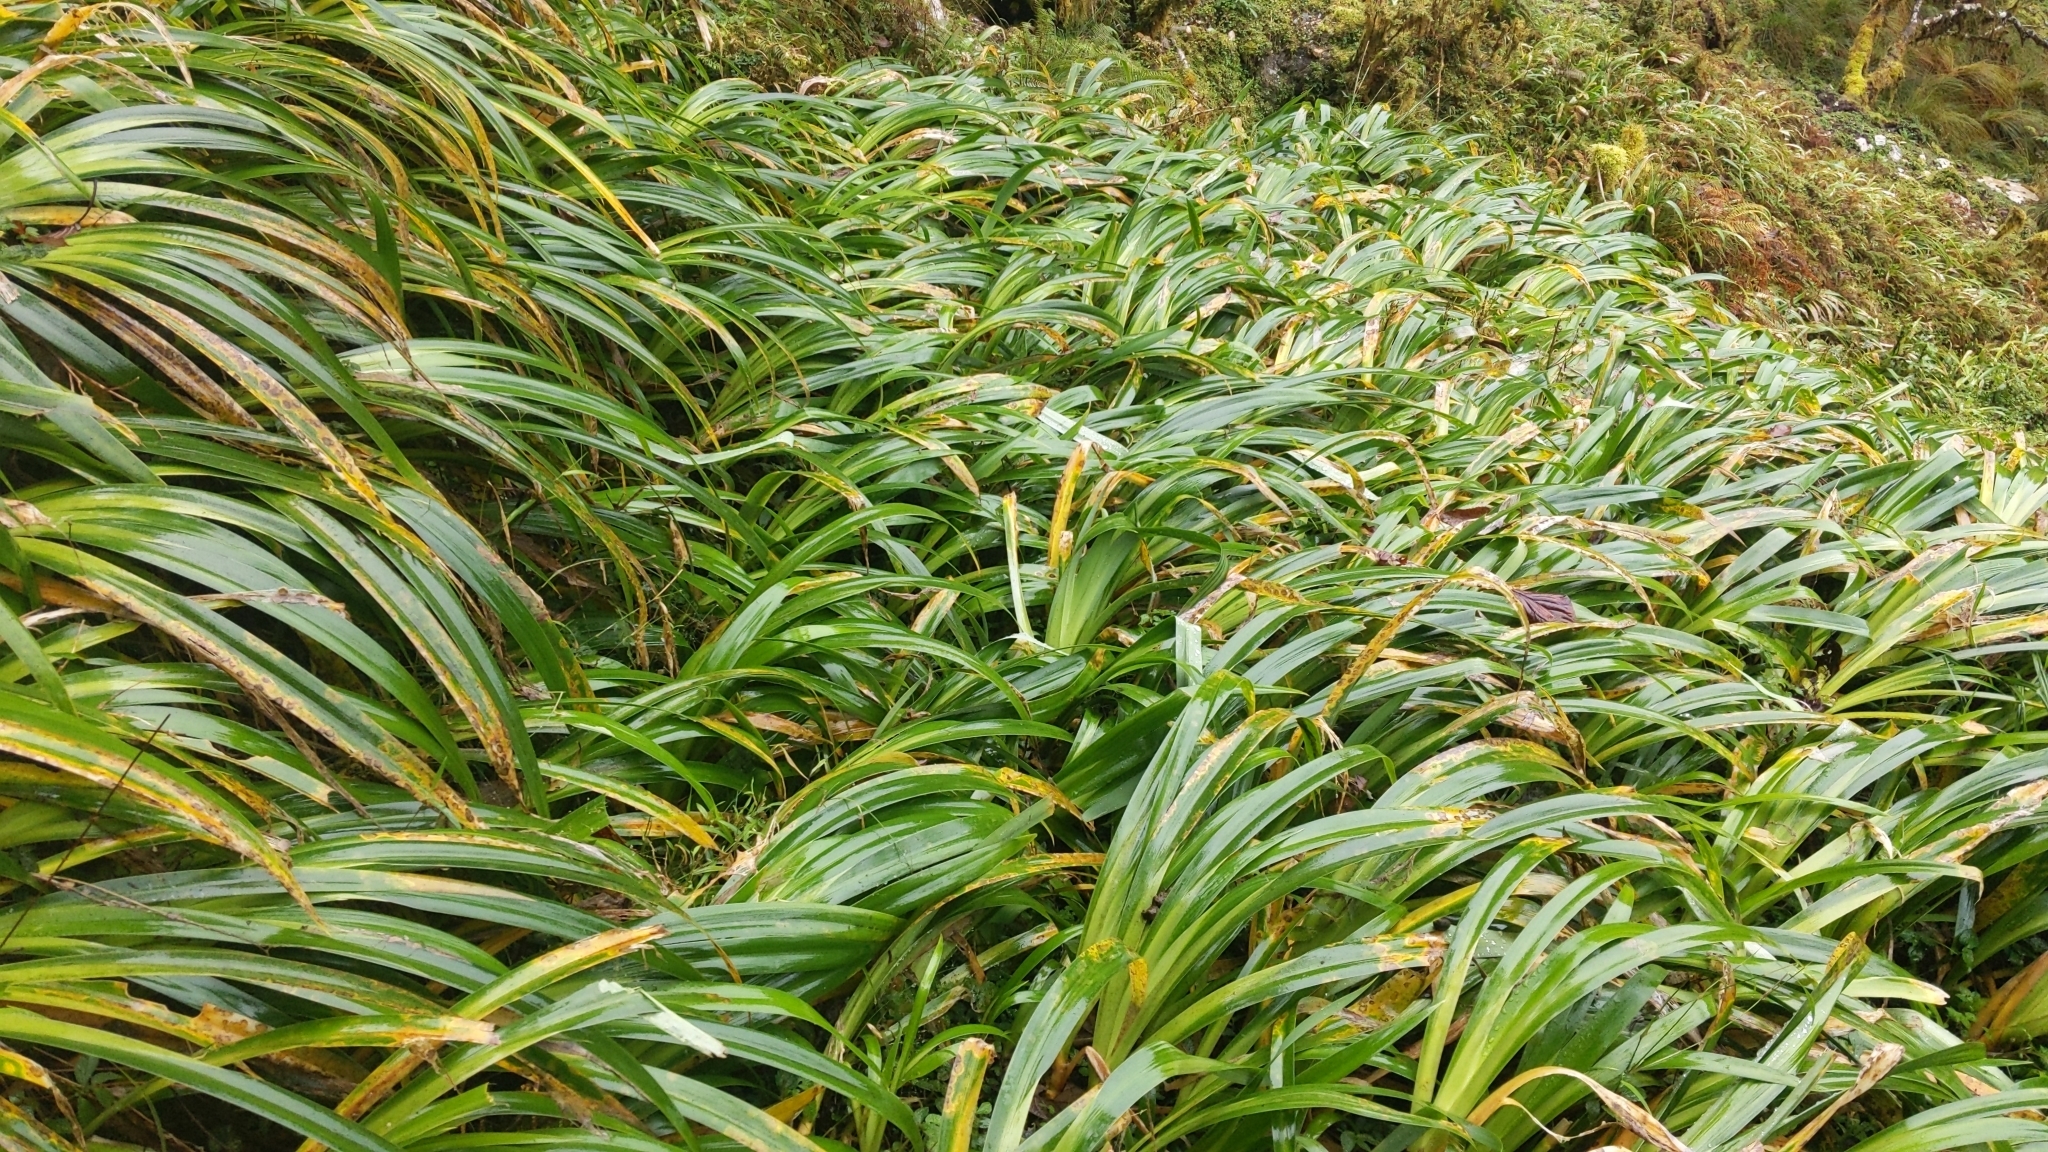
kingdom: Plantae
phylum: Tracheophyta
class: Liliopsida
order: Asparagales
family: Iridaceae
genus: Iris
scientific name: Iris formosana
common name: Taiwan iris
